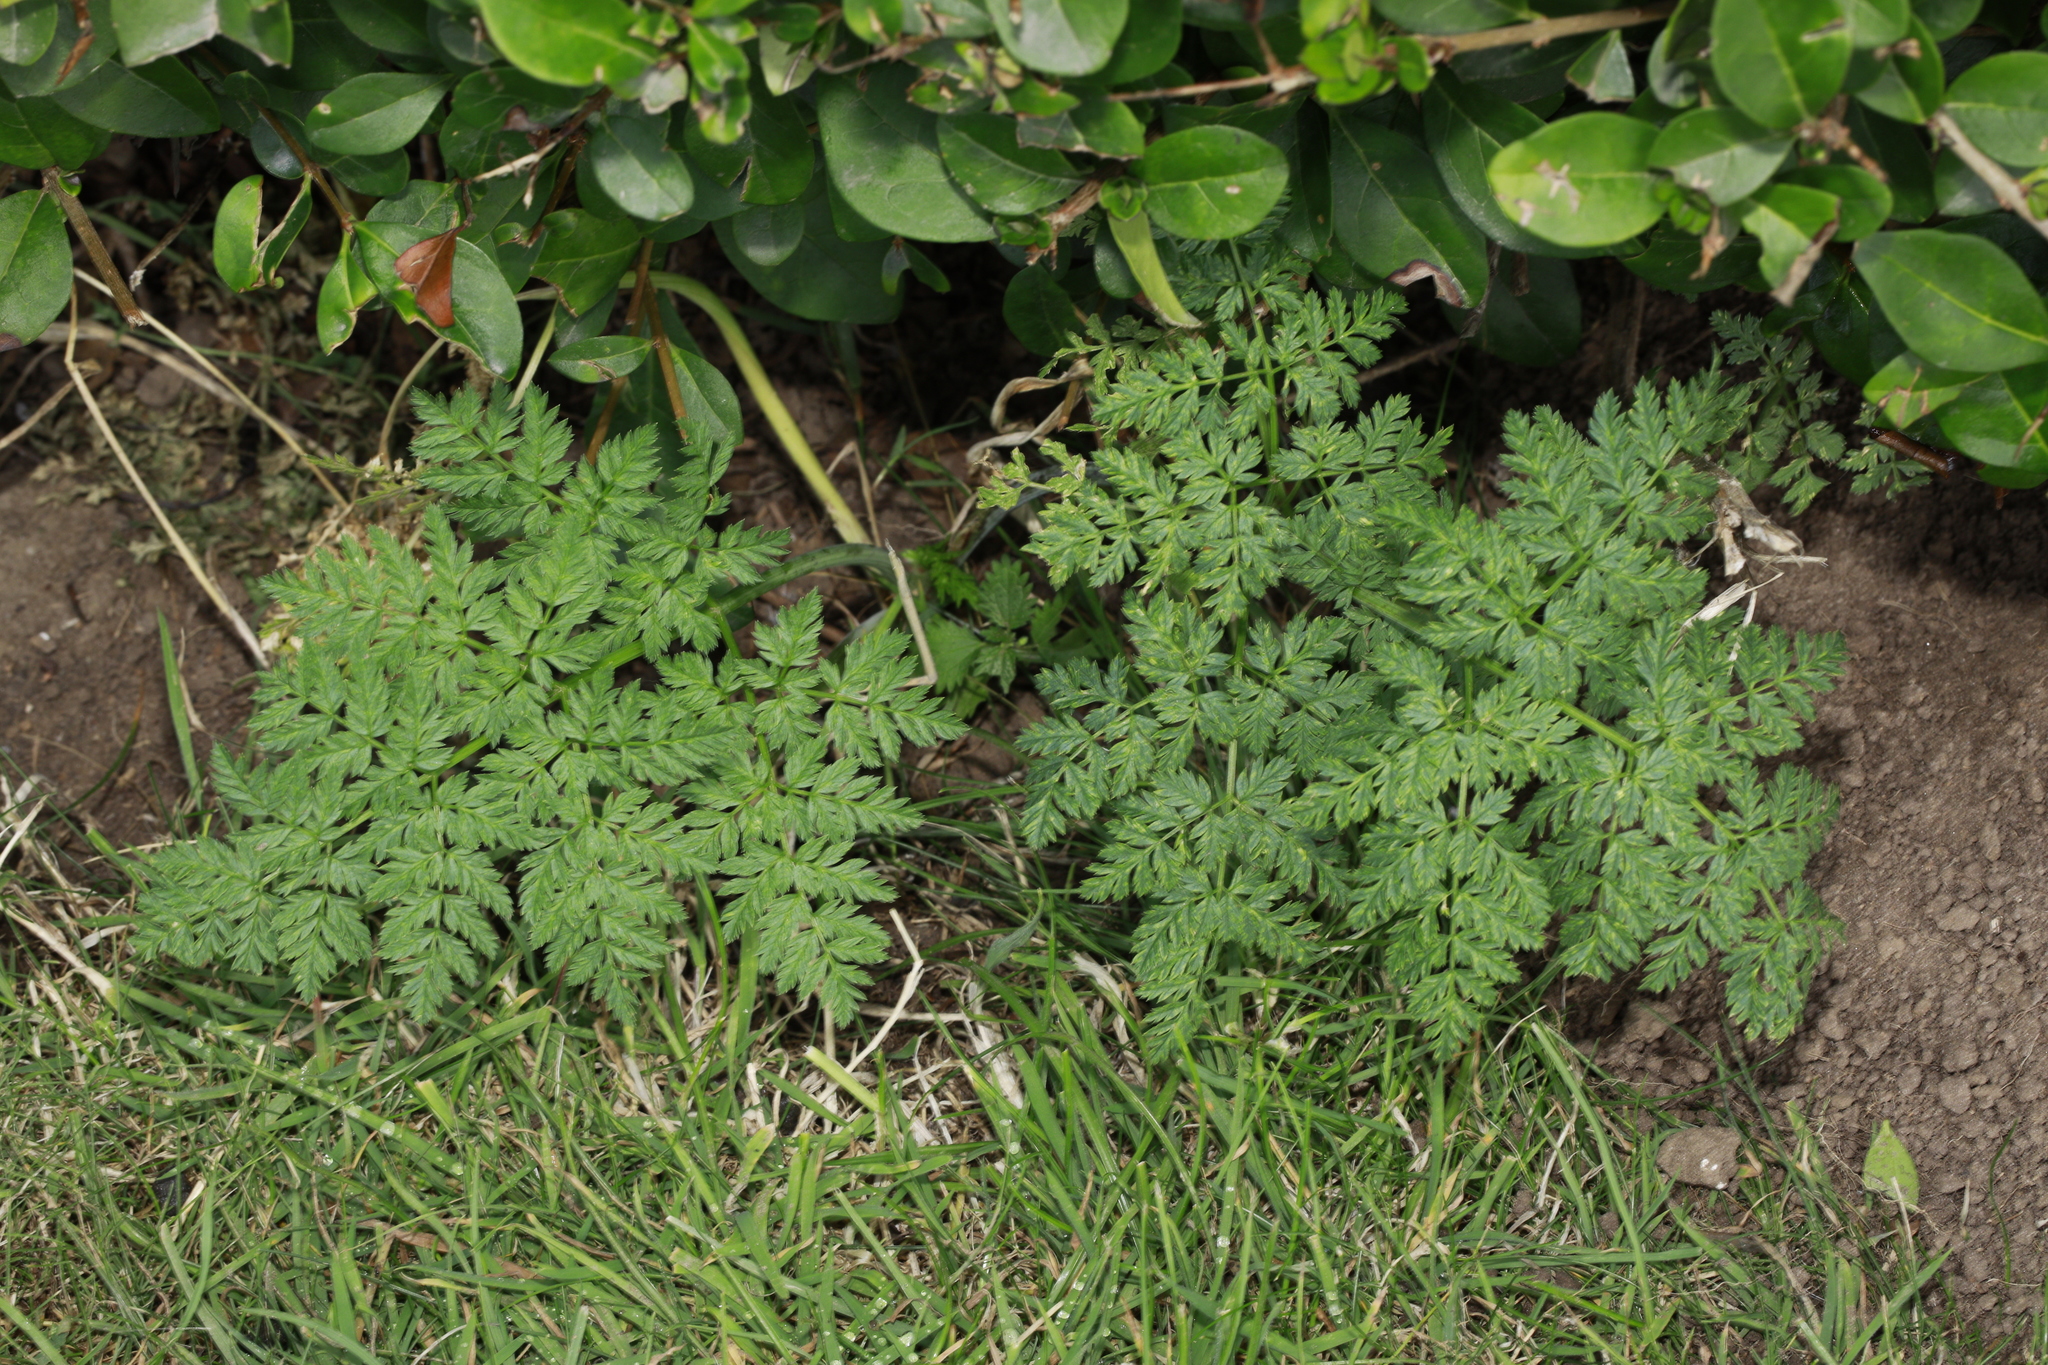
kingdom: Plantae
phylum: Tracheophyta
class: Magnoliopsida
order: Apiales
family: Apiaceae
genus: Anthriscus
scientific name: Anthriscus sylvestris
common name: Cow parsley
